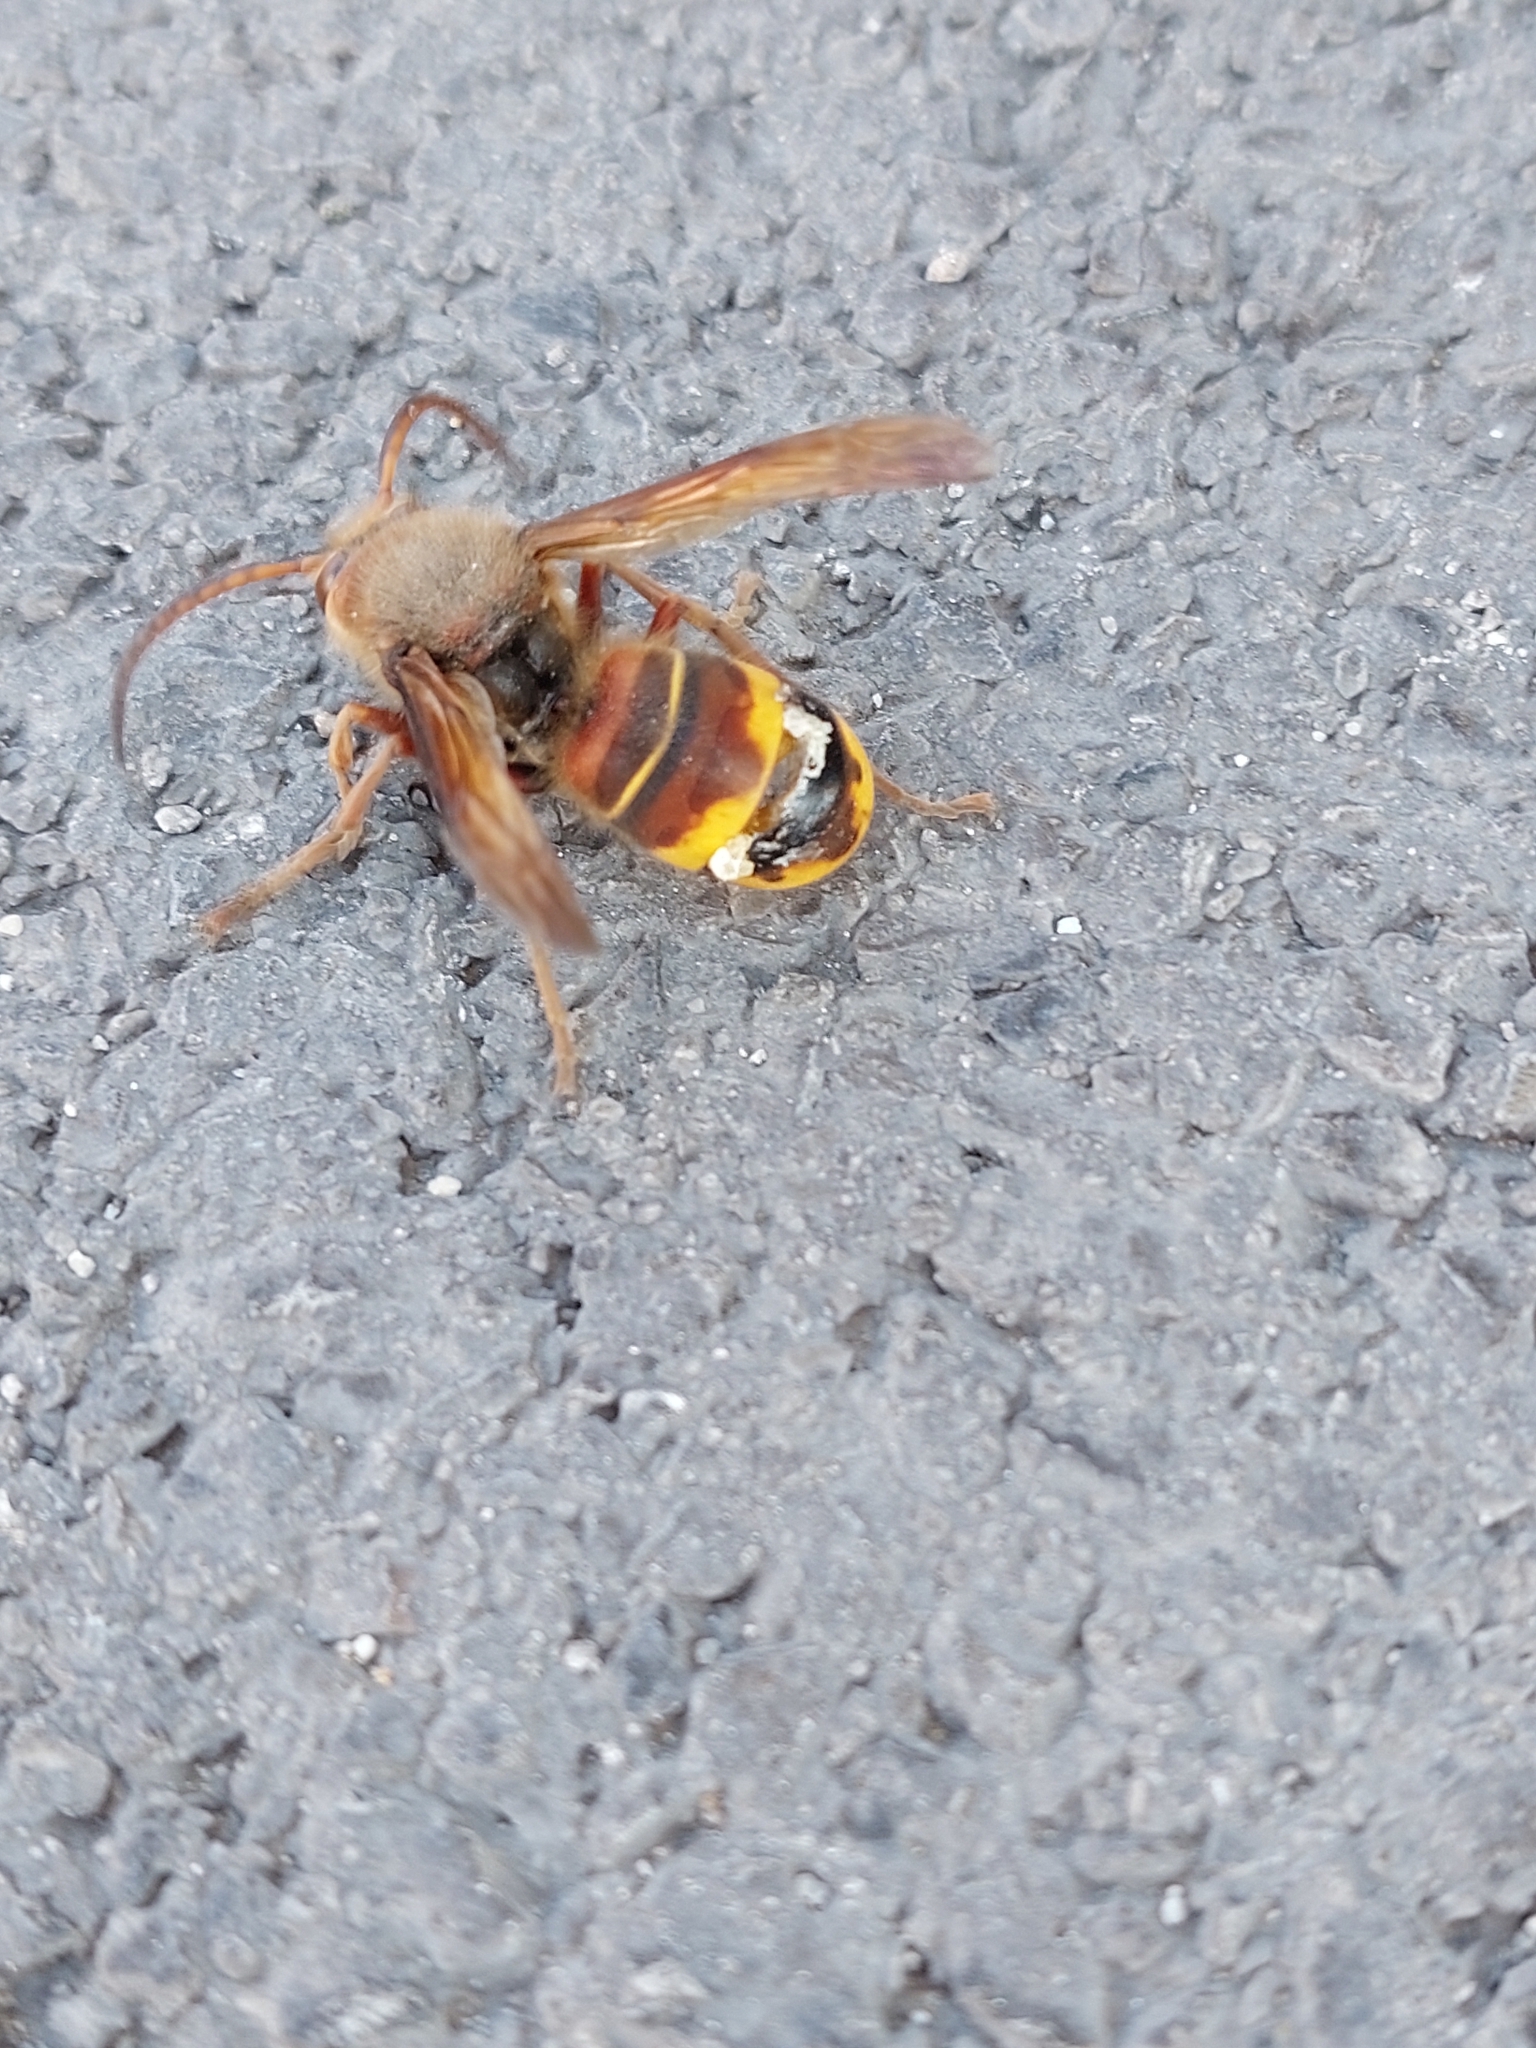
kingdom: Animalia
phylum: Arthropoda
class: Insecta
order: Hymenoptera
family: Vespidae
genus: Vespa
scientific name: Vespa crabro
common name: Hornet
